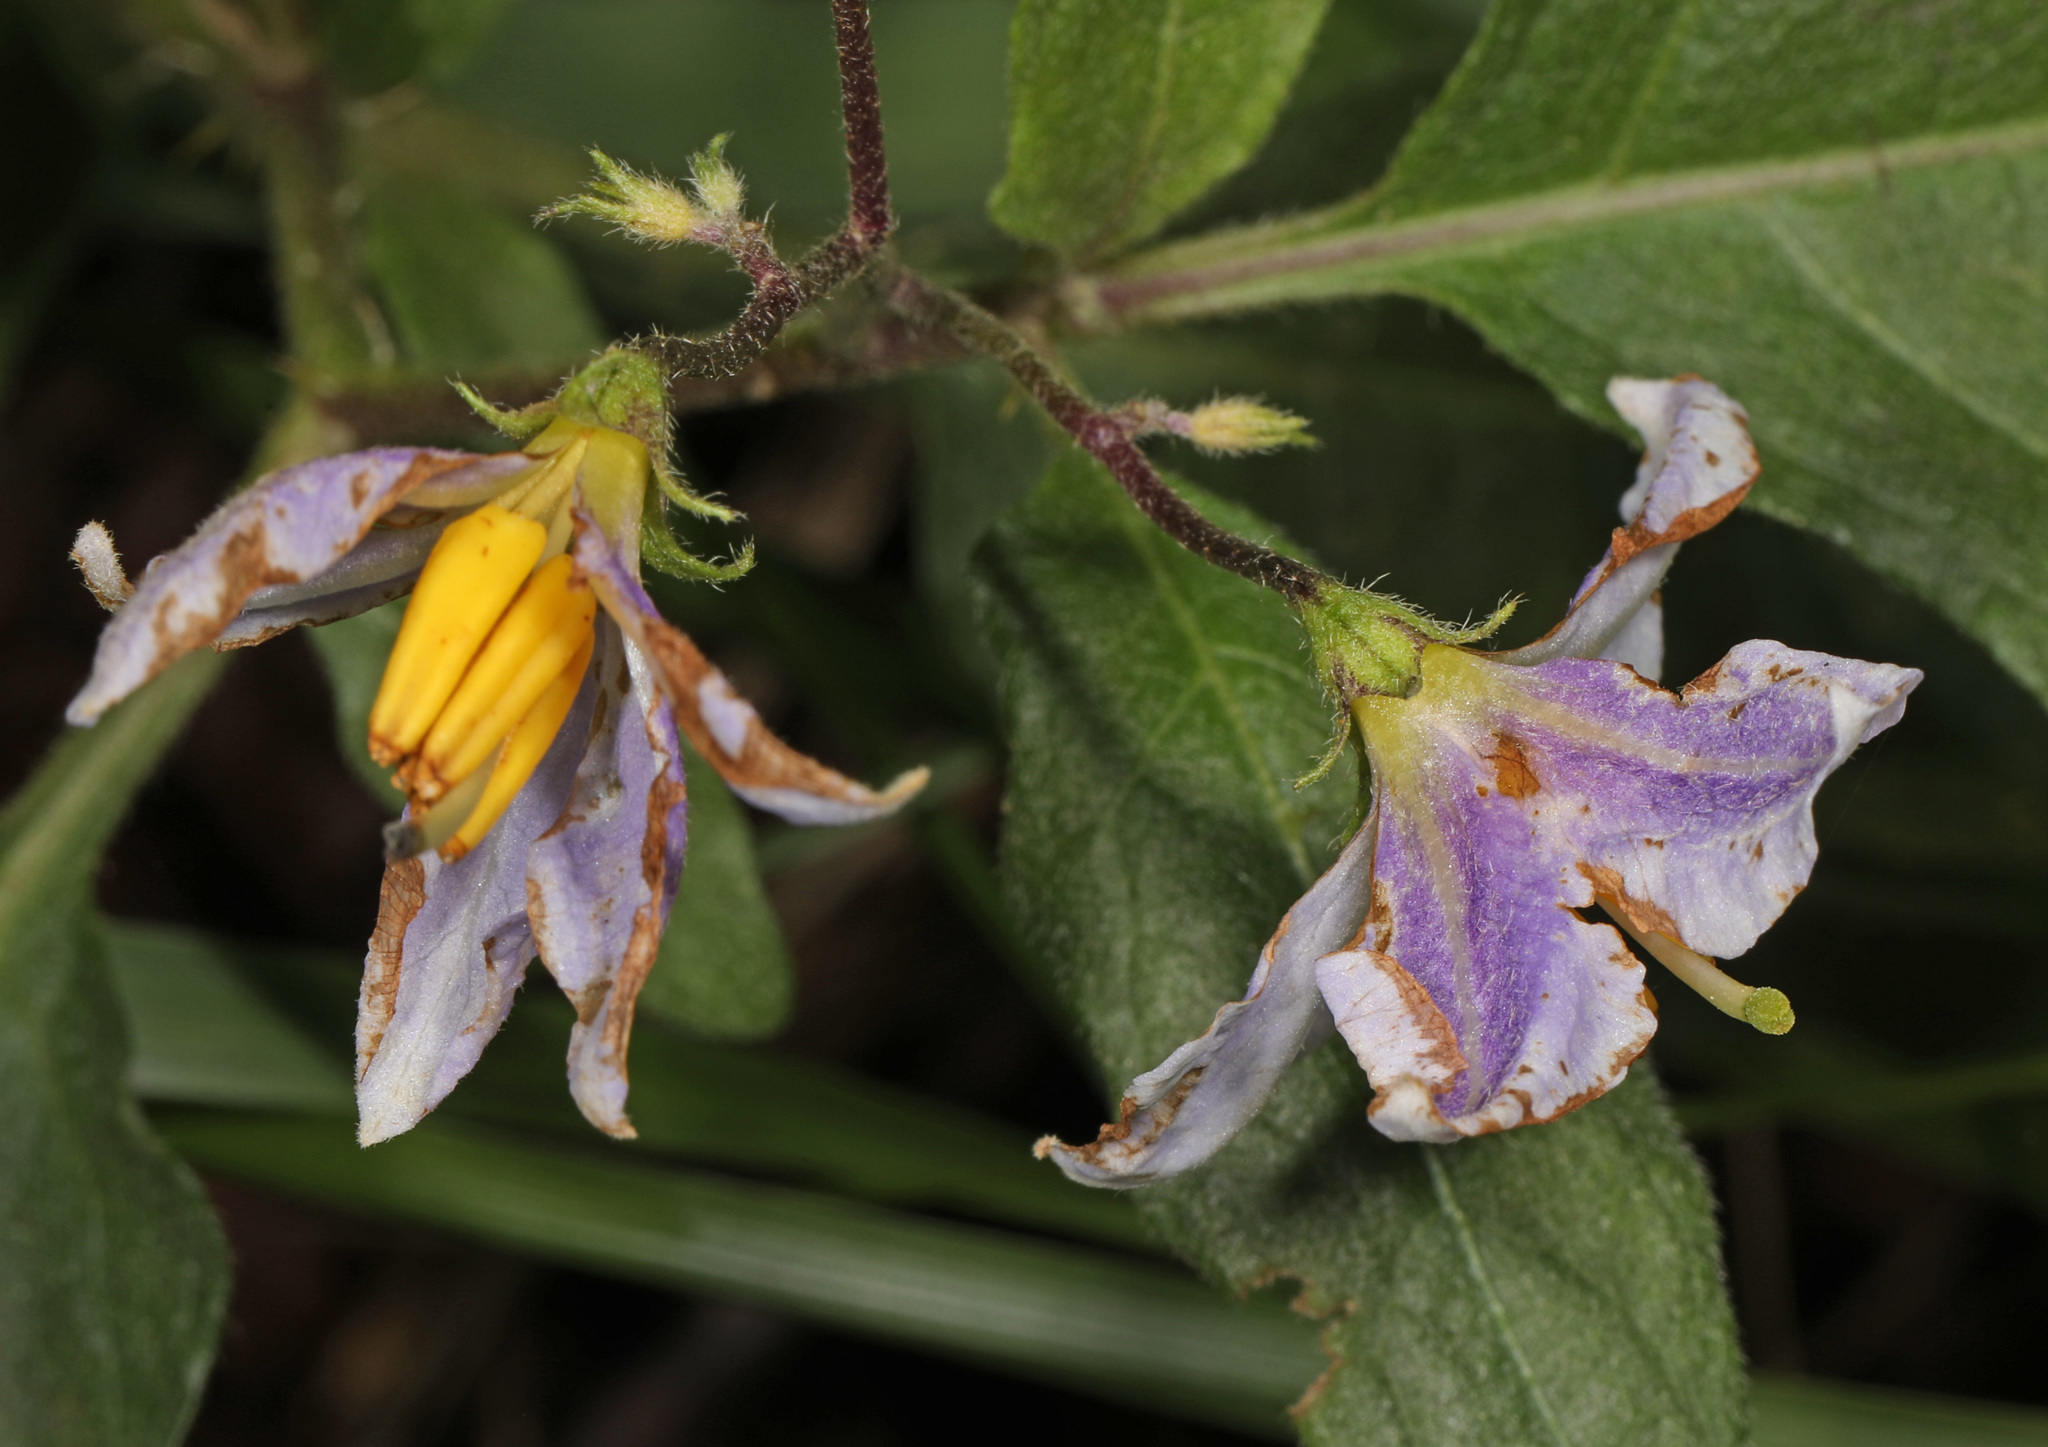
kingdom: Plantae
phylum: Tracheophyta
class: Magnoliopsida
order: Solanales
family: Solanaceae
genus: Solanum
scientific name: Solanum carolinense
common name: Horse-nettle
